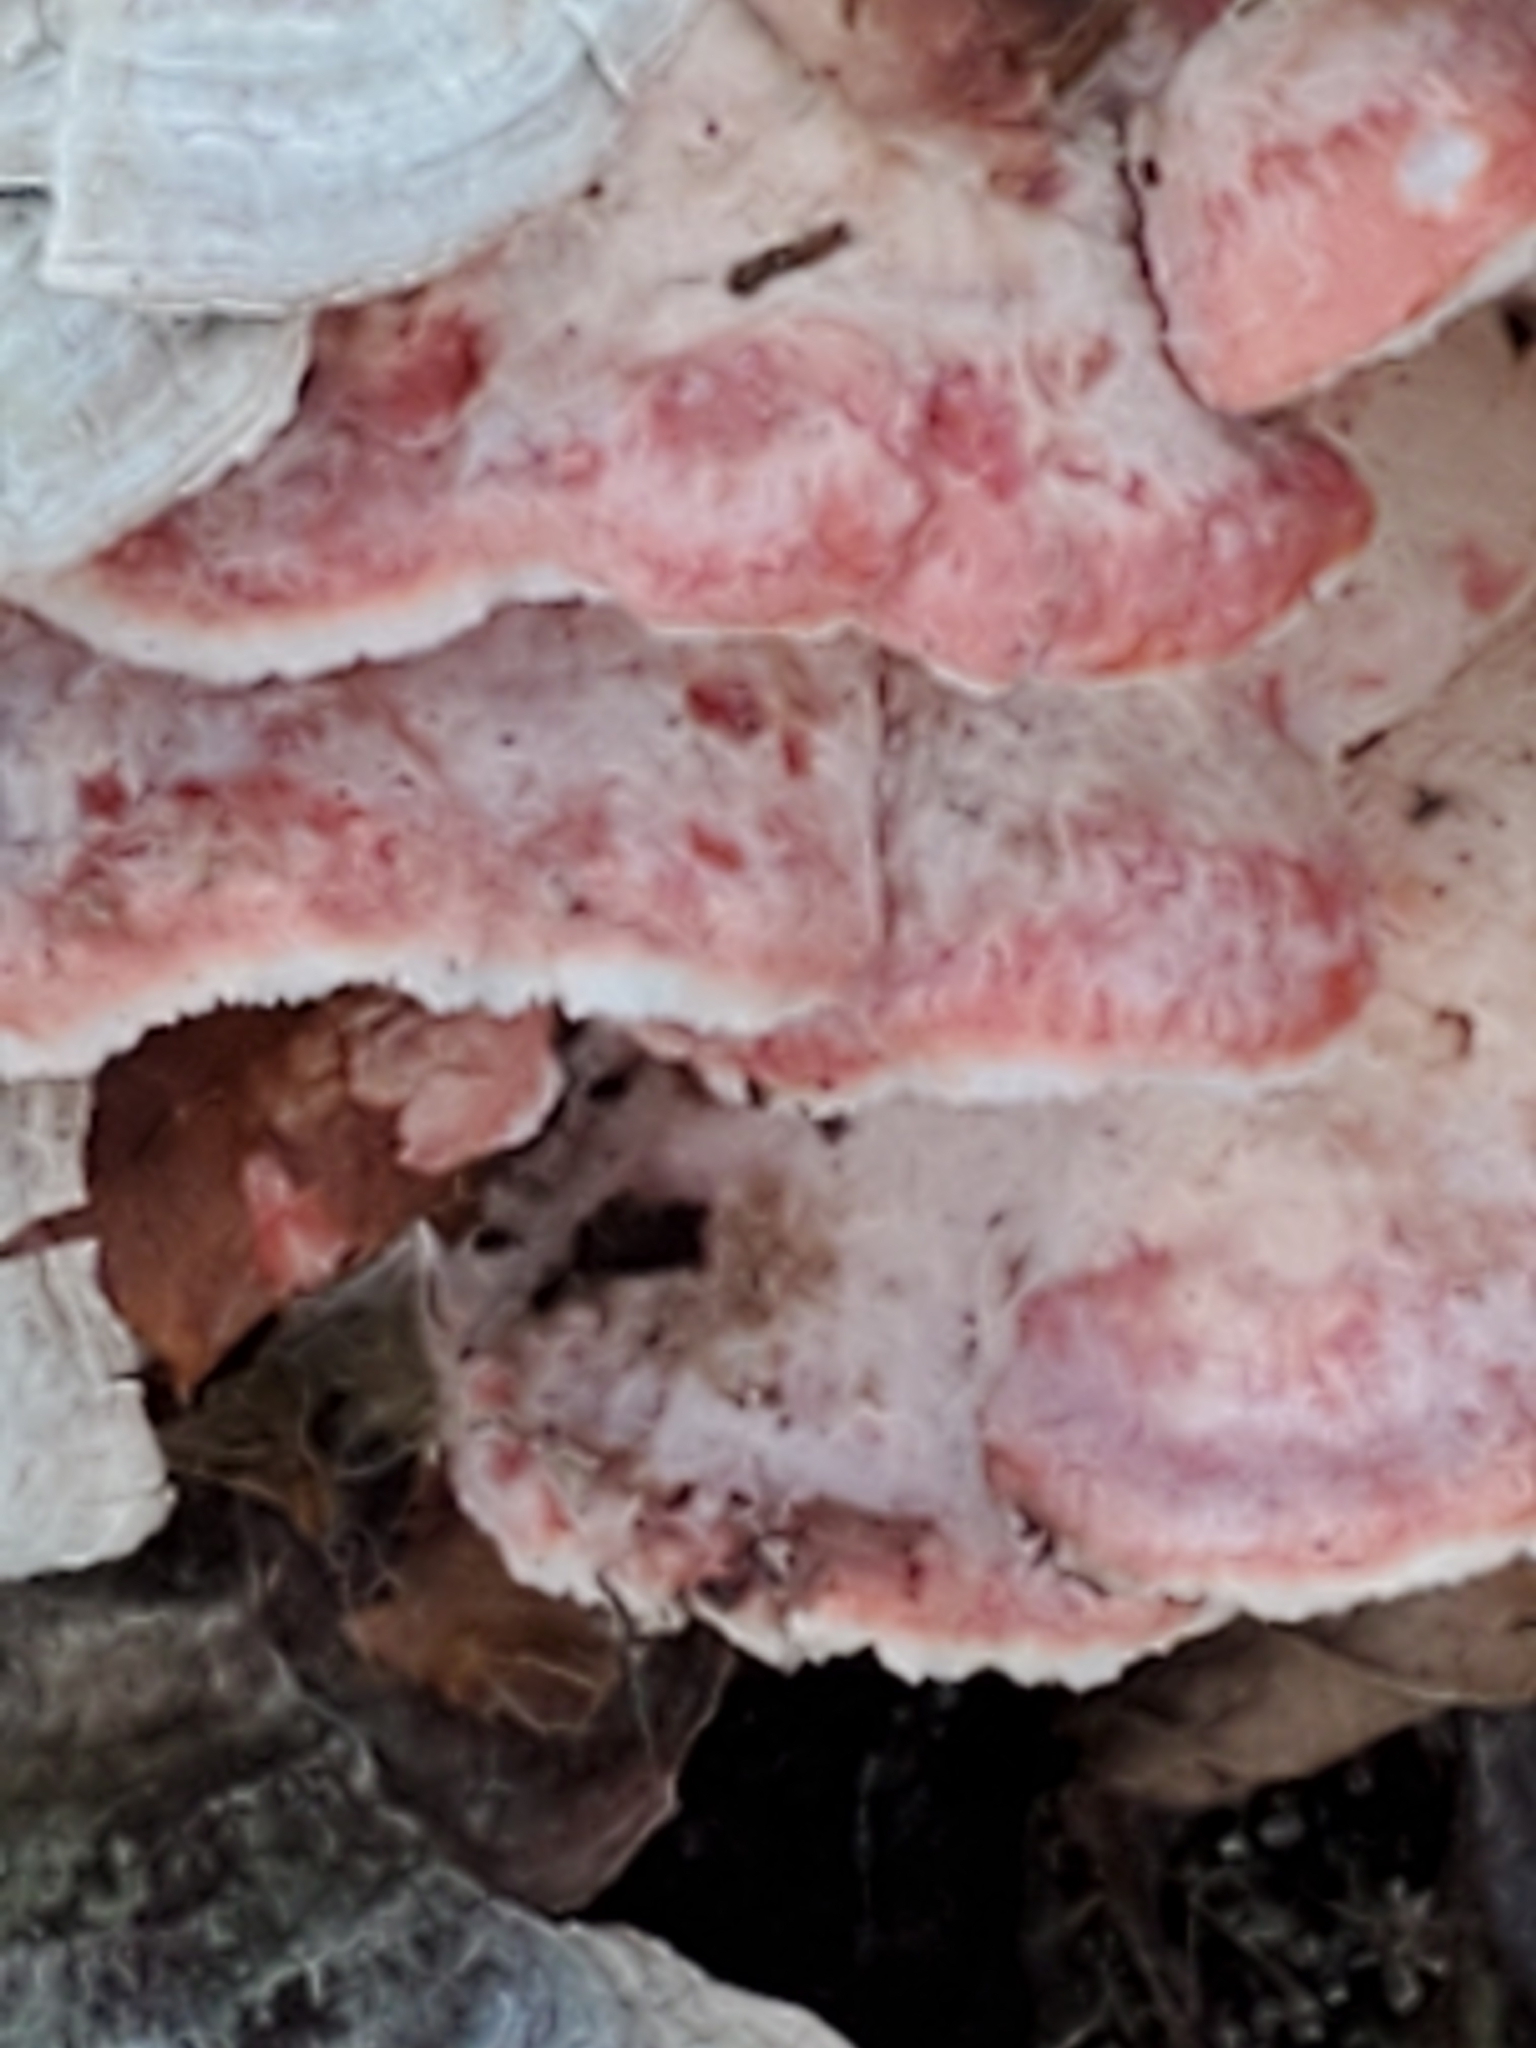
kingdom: Fungi
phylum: Basidiomycota
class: Agaricomycetes
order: Polyporales
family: Irpicaceae
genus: Byssomerulius
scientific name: Byssomerulius incarnatus
